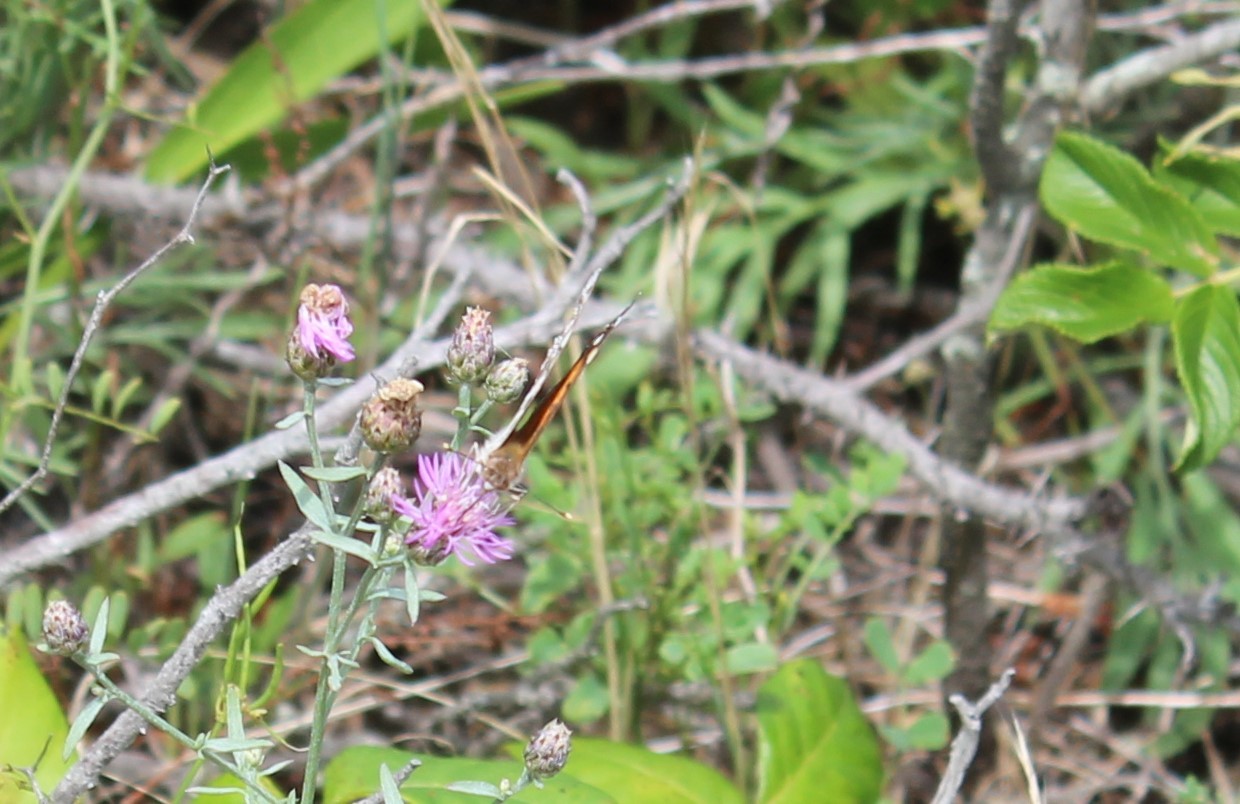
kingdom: Animalia
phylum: Arthropoda
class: Insecta
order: Lepidoptera
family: Nymphalidae
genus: Vanessa
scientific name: Vanessa virginiensis
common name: American lady
